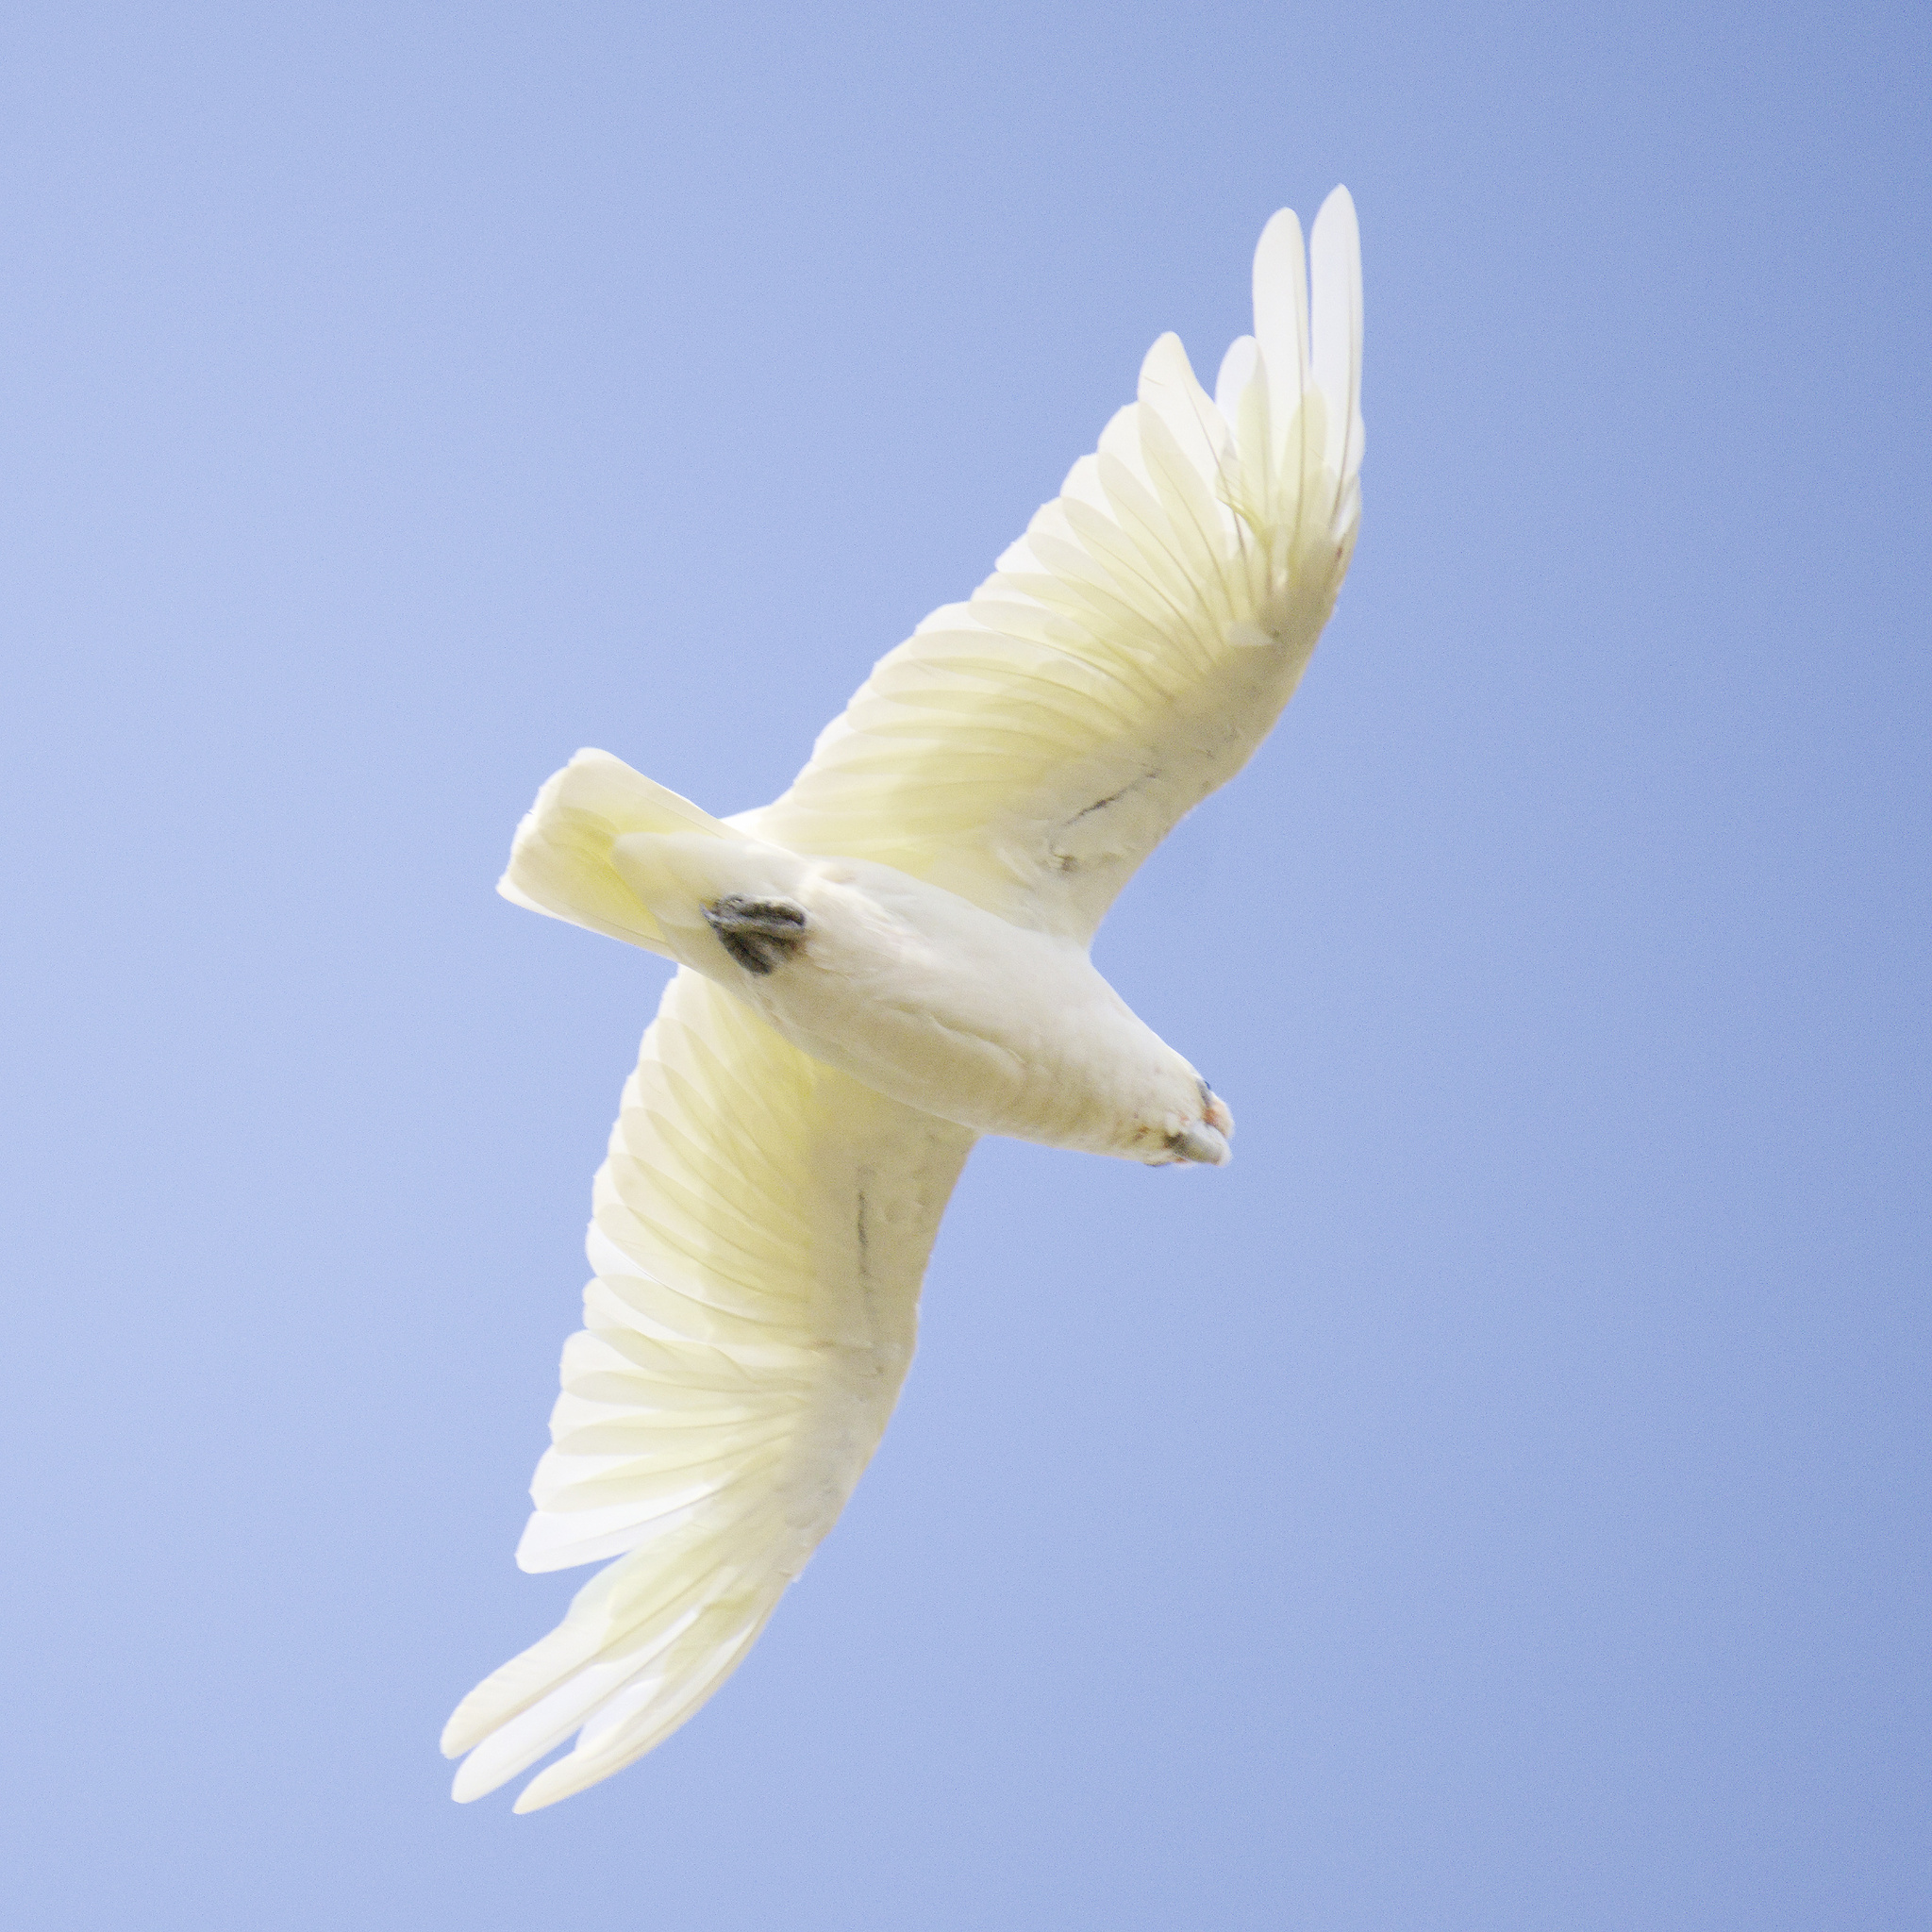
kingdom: Animalia
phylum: Chordata
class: Aves
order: Psittaciformes
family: Psittacidae
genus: Cacatua
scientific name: Cacatua sanguinea
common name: Little corella
